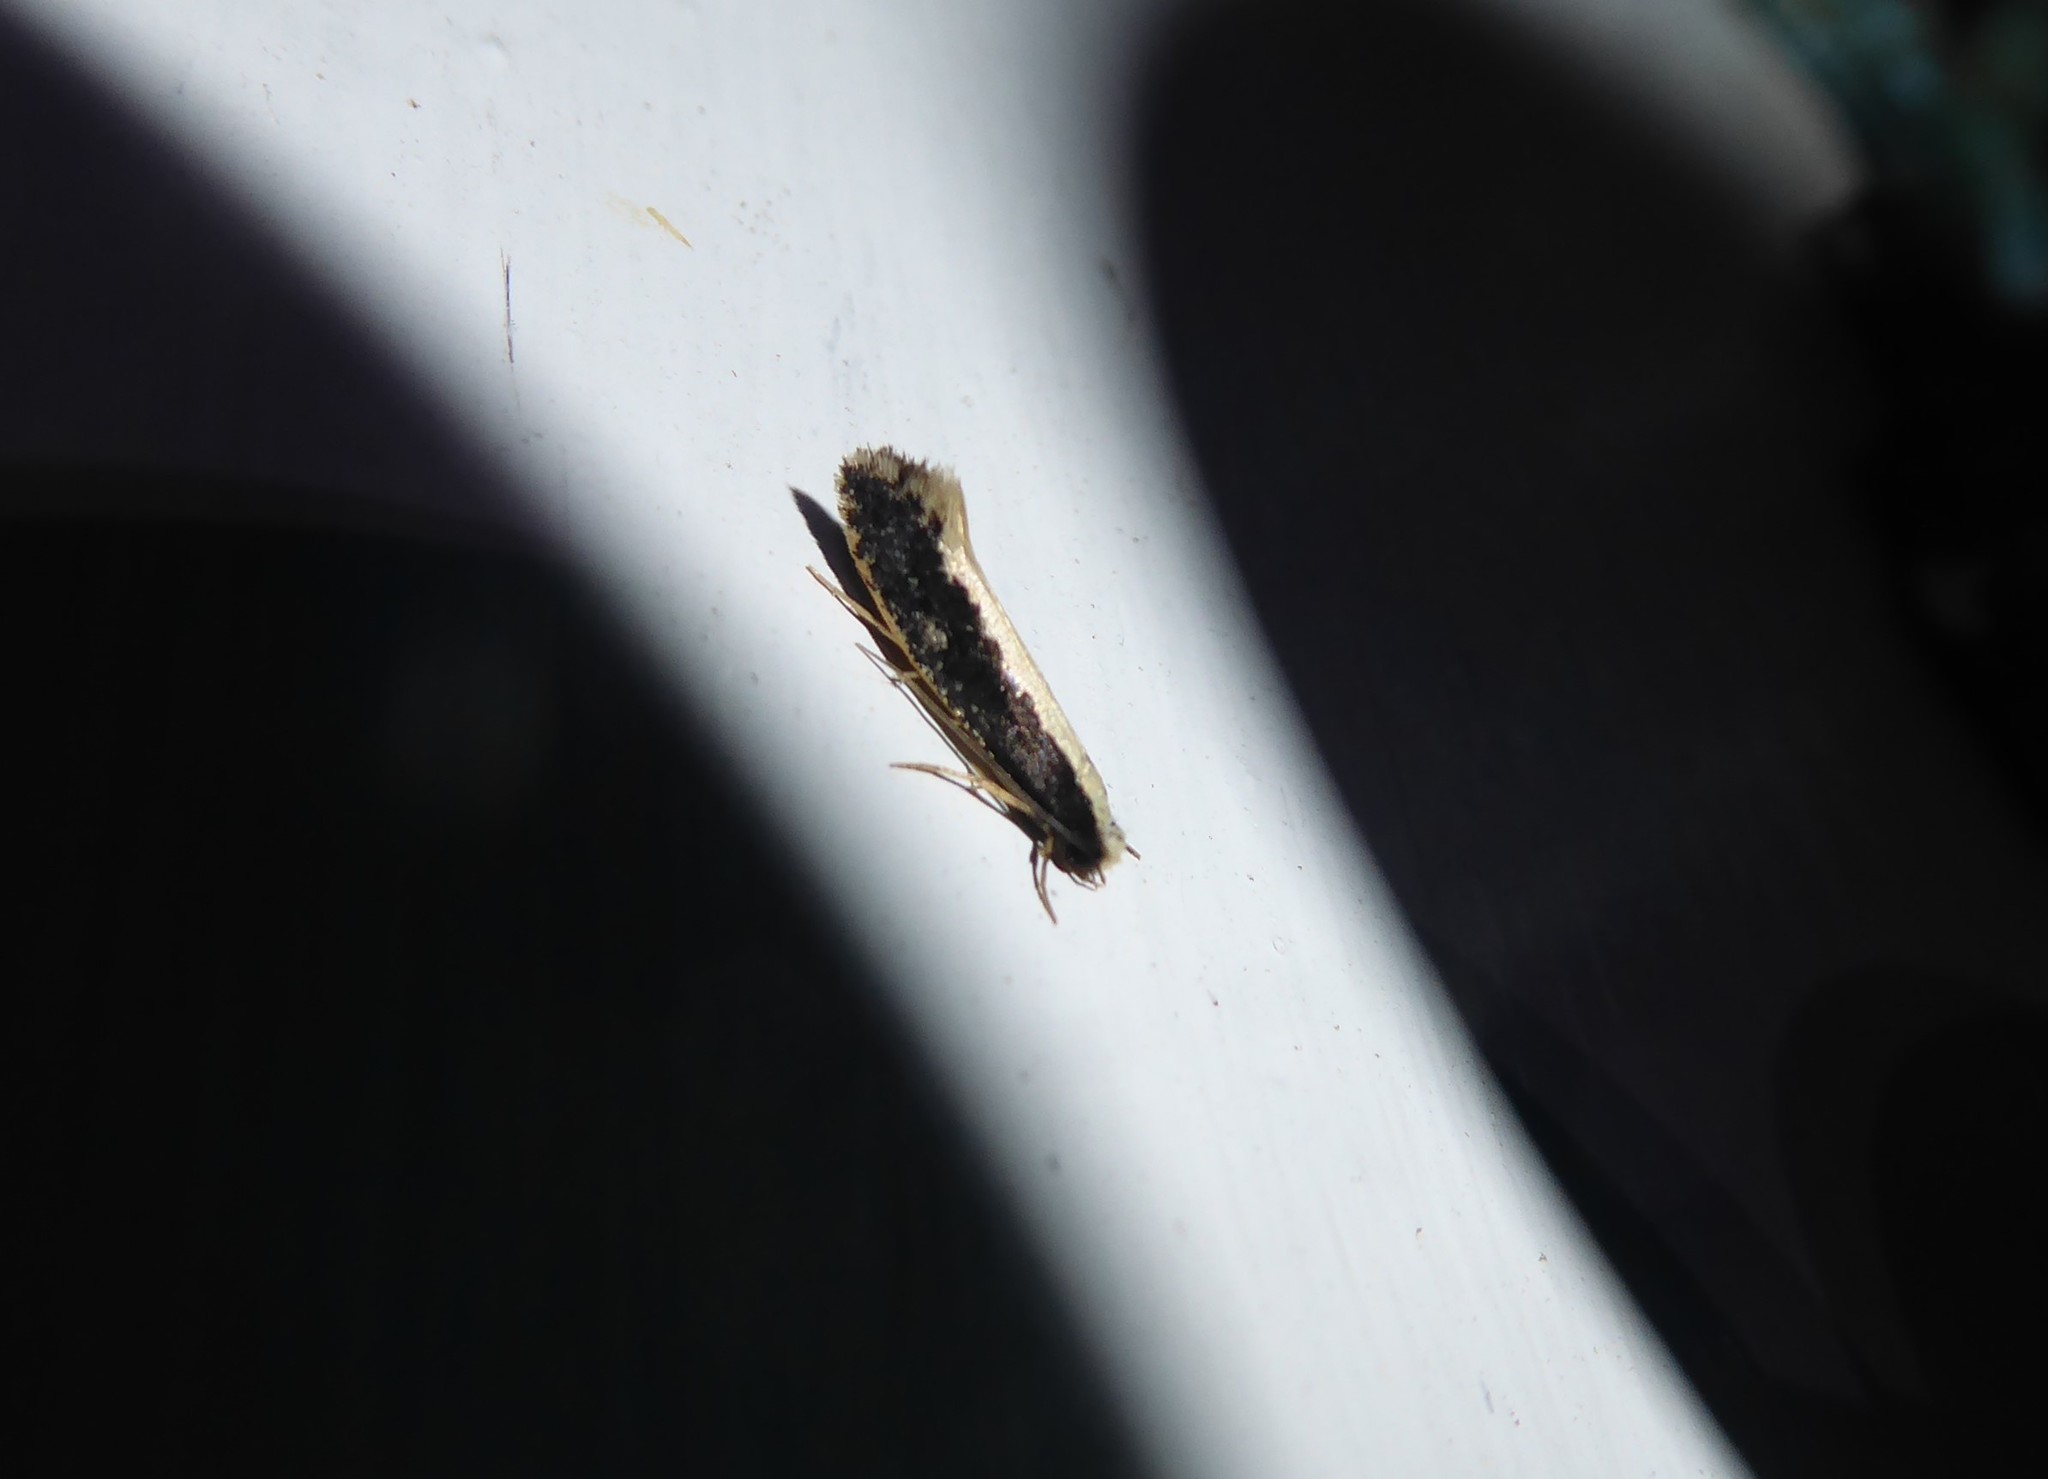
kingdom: Animalia
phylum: Arthropoda
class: Insecta
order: Lepidoptera
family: Tineidae
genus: Monopis
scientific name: Monopis ethelella
